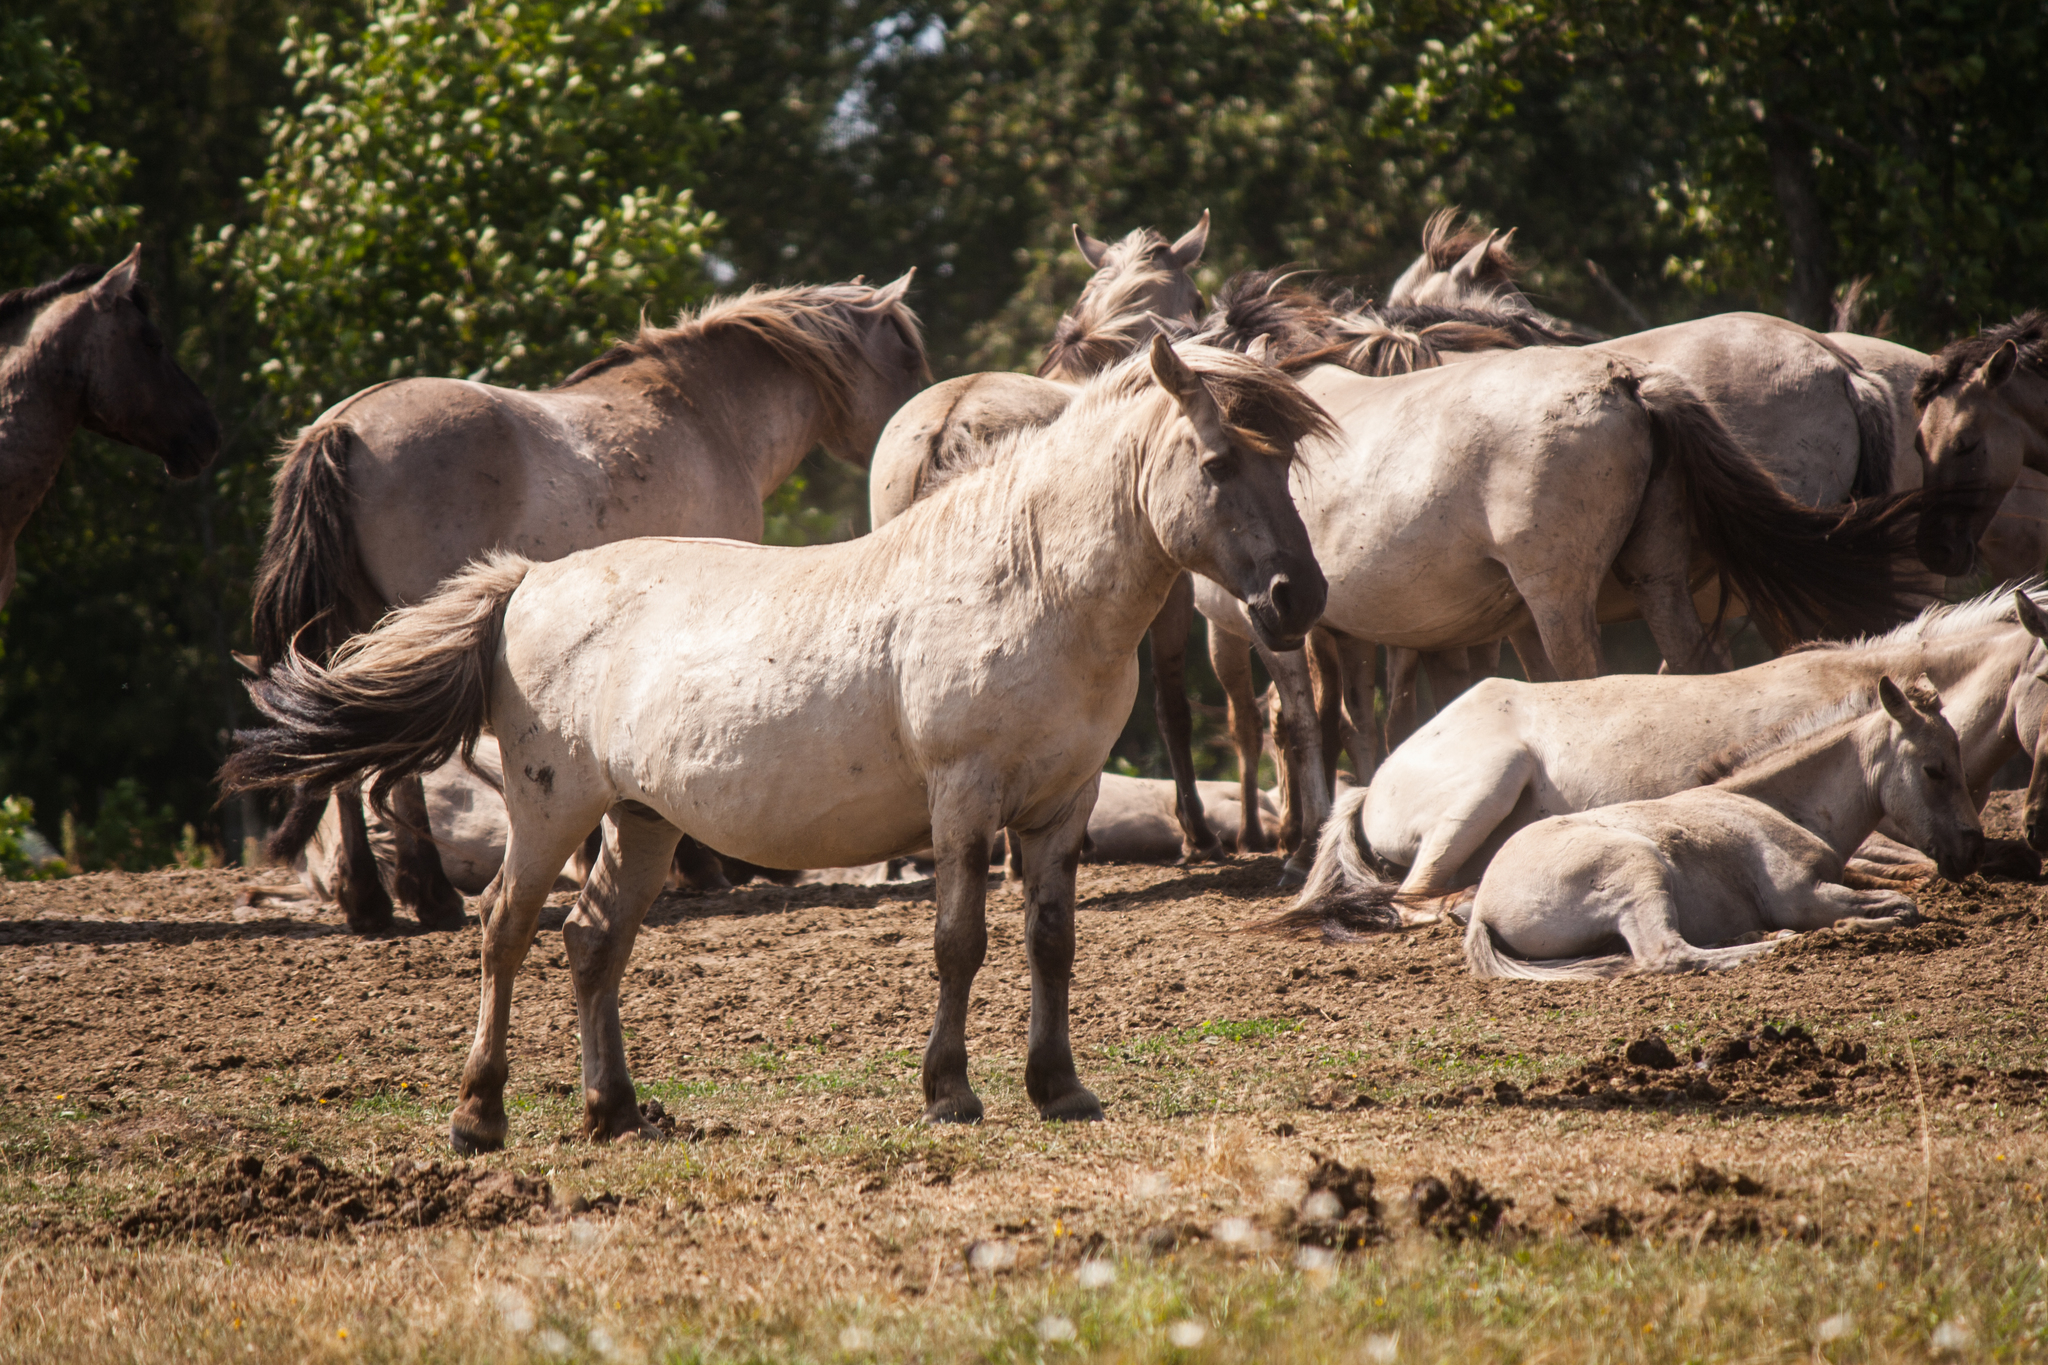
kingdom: Animalia
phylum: Chordata
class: Mammalia
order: Perissodactyla
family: Equidae
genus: Equus
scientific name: Equus caballus
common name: Horse
